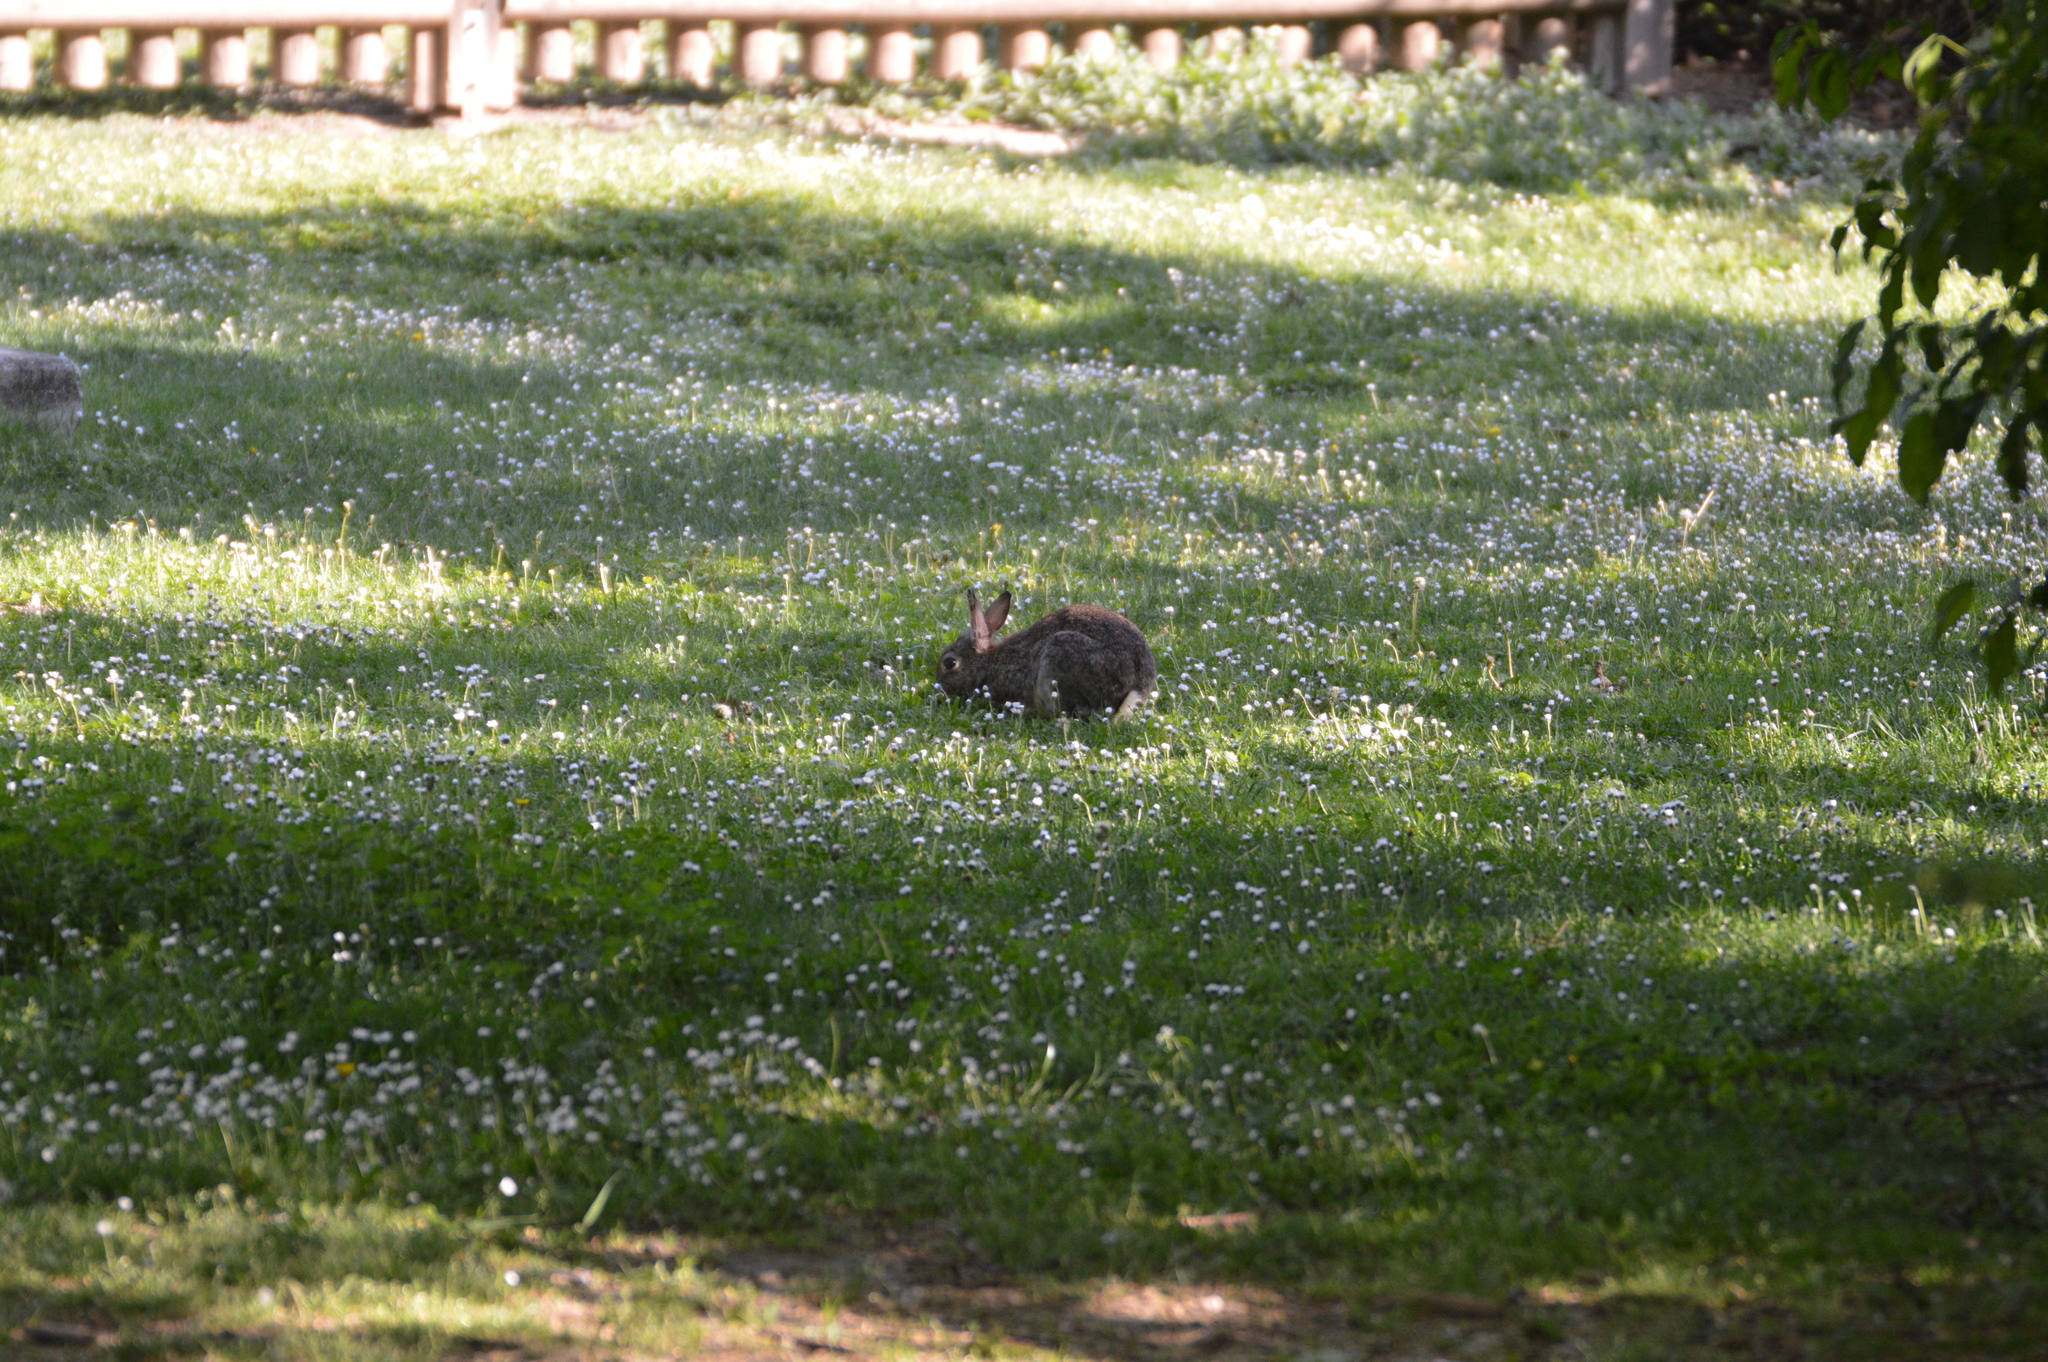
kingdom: Animalia
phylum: Chordata
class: Mammalia
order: Lagomorpha
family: Leporidae
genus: Oryctolagus
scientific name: Oryctolagus cuniculus
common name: European rabbit
